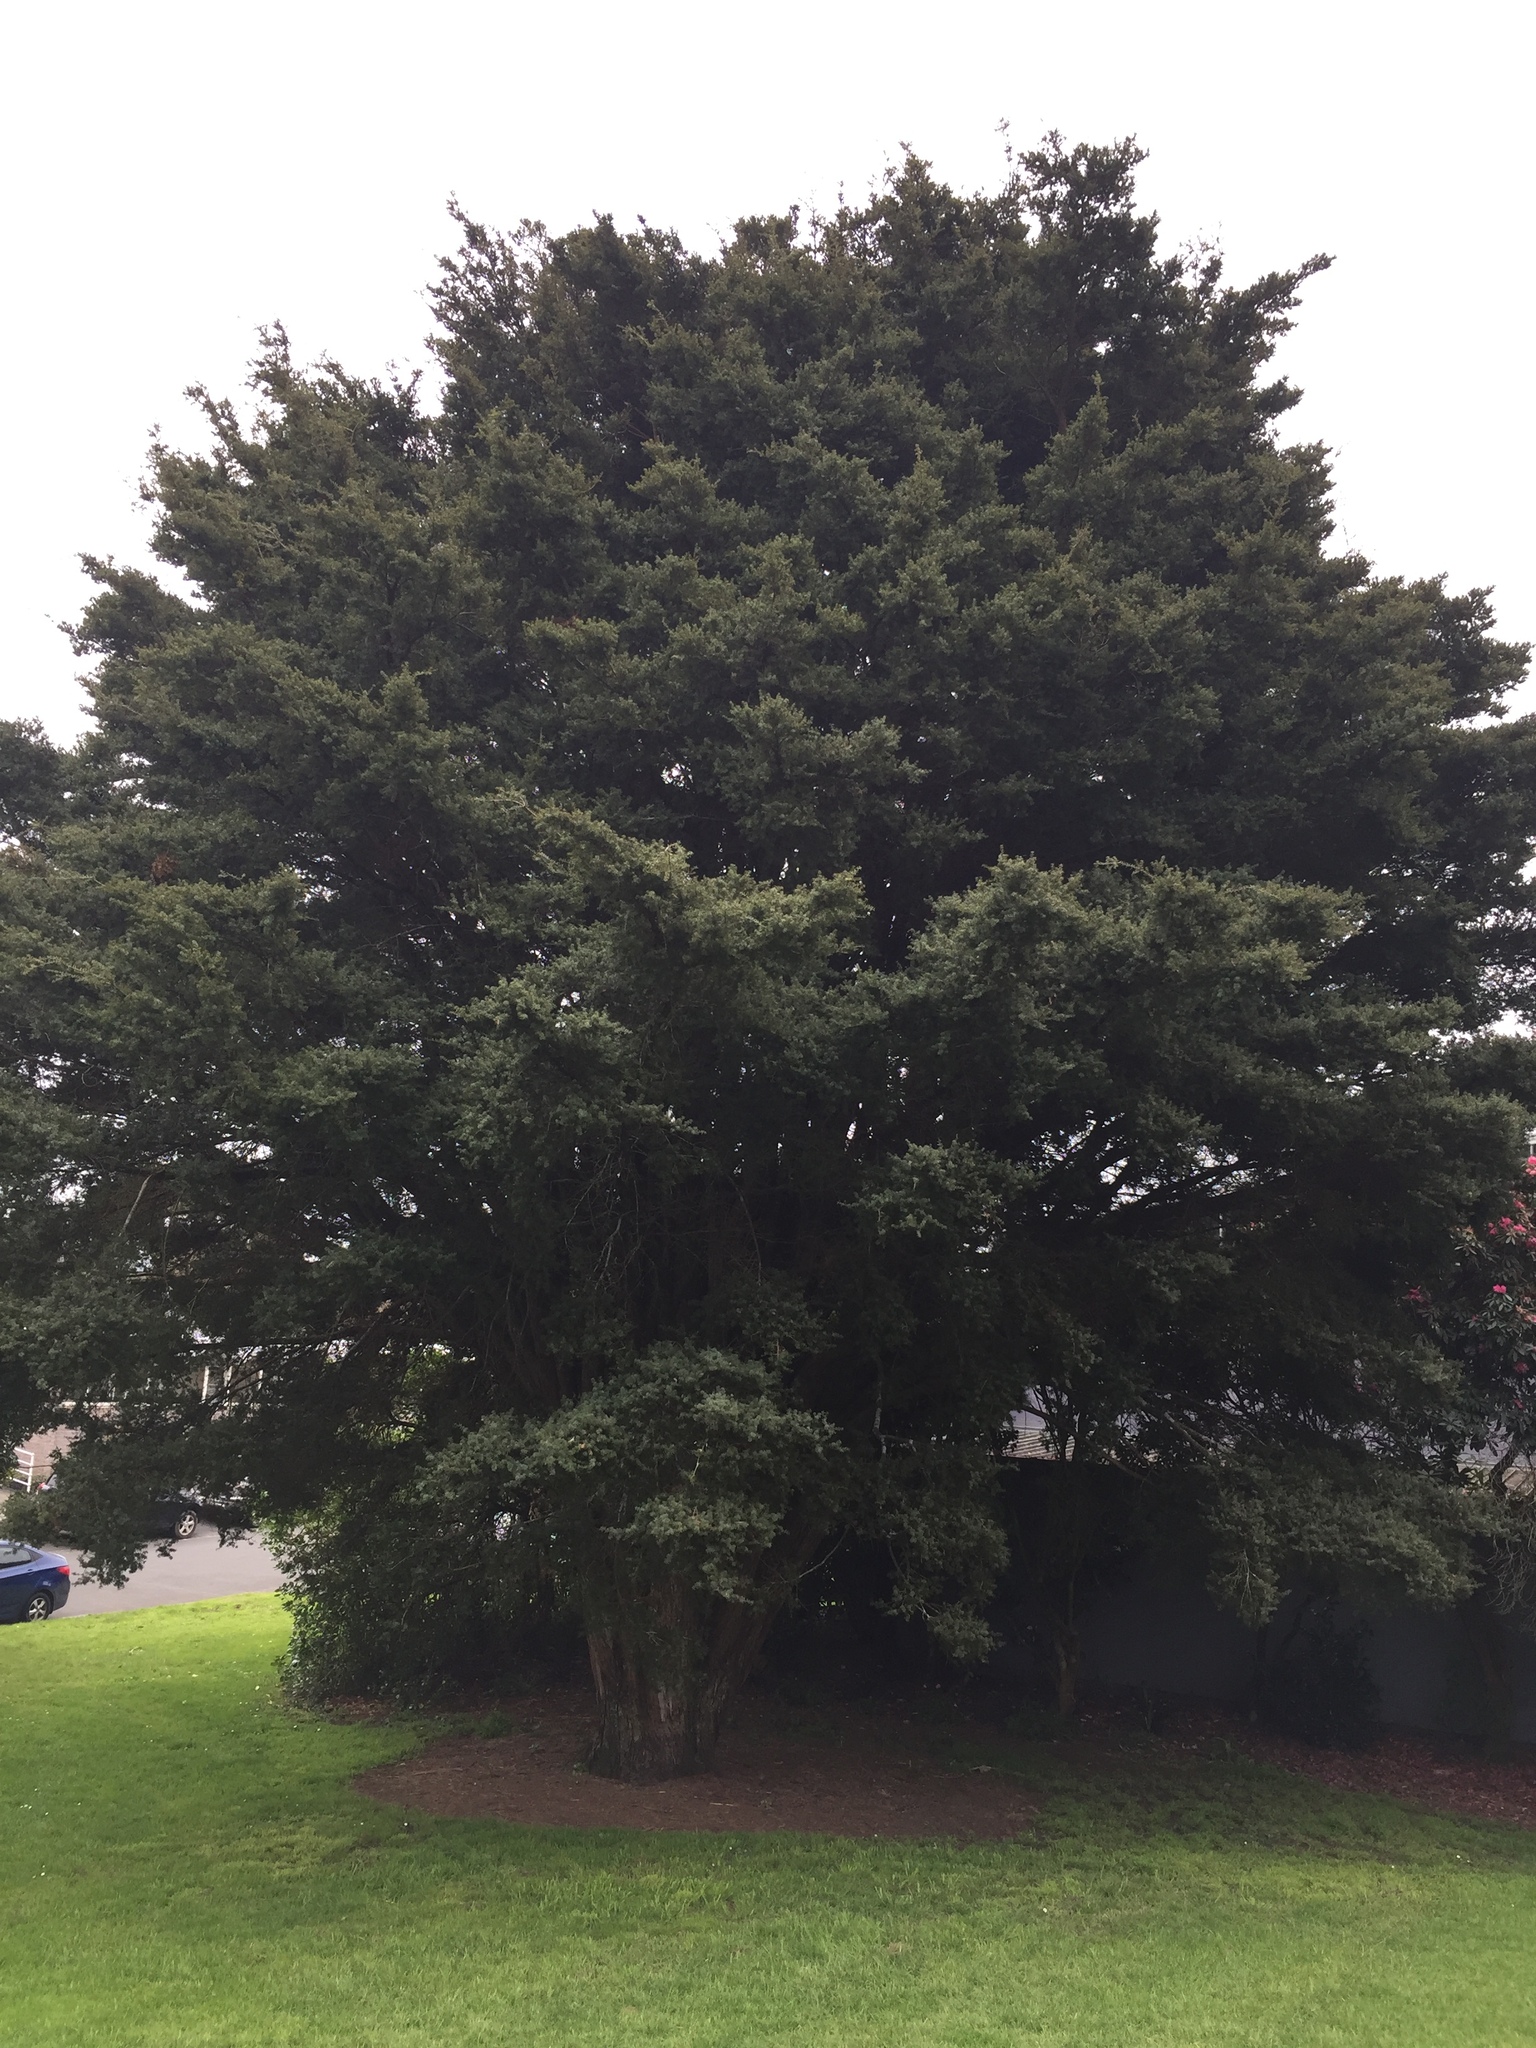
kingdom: Animalia
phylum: Arthropoda
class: Insecta
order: Hemiptera
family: Aphididae
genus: Neophyllaphis
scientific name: Neophyllaphis totarae
